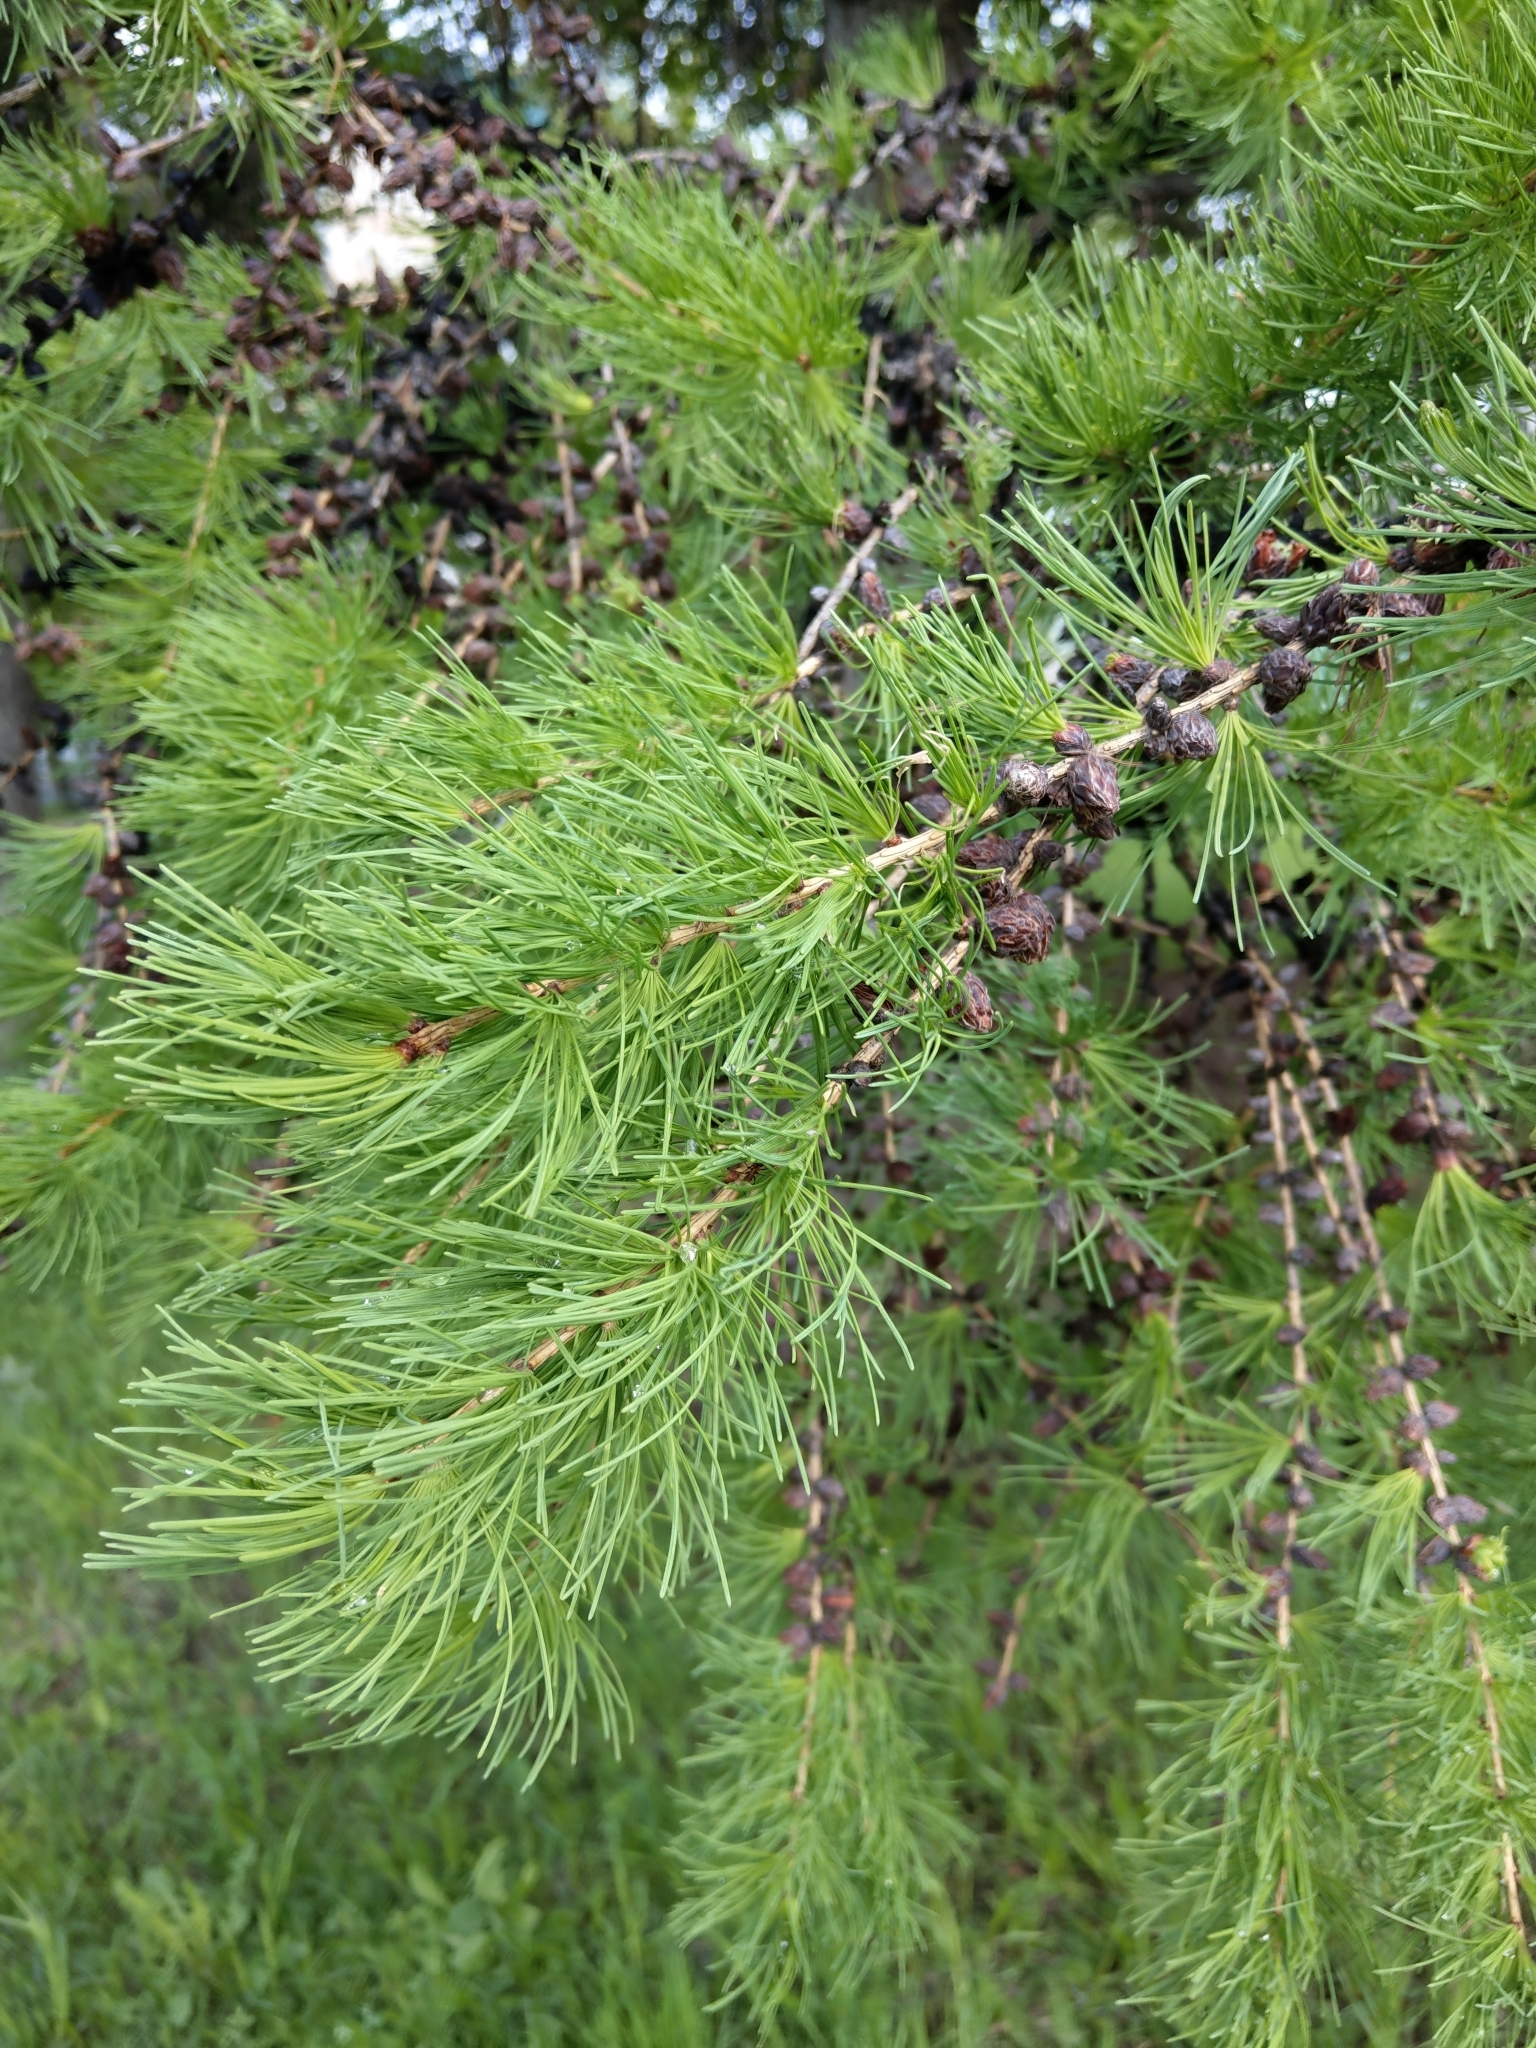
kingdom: Plantae
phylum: Tracheophyta
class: Pinopsida
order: Pinales
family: Pinaceae
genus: Larix
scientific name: Larix sibirica
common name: Siberian larch
